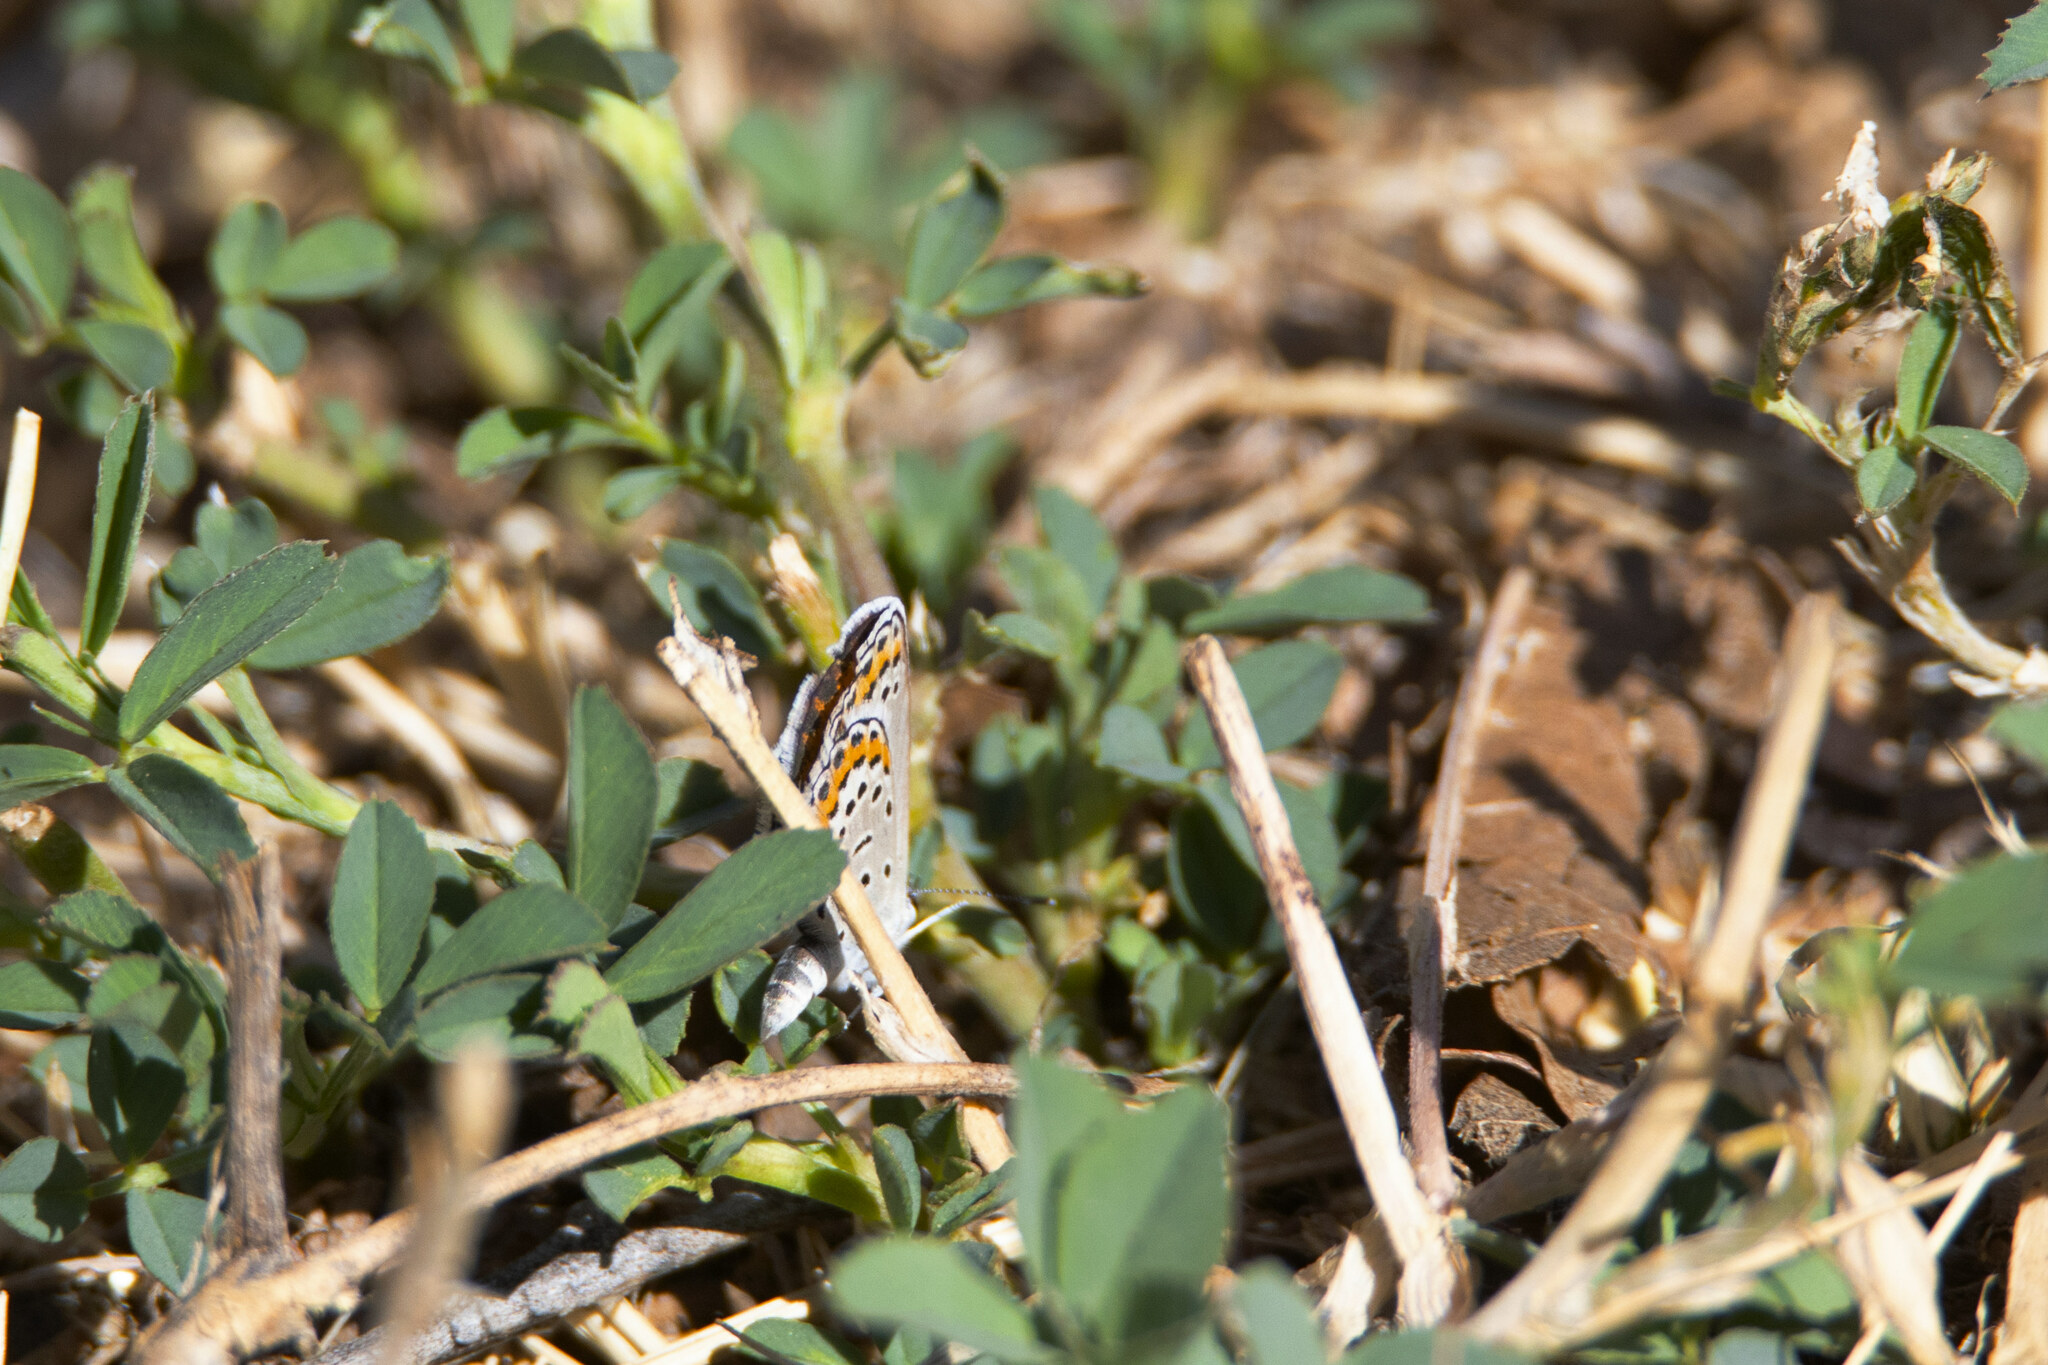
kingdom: Animalia
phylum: Arthropoda
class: Insecta
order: Lepidoptera
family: Lycaenidae
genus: Lycaeides
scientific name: Lycaeides melissa
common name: Melissa blue
